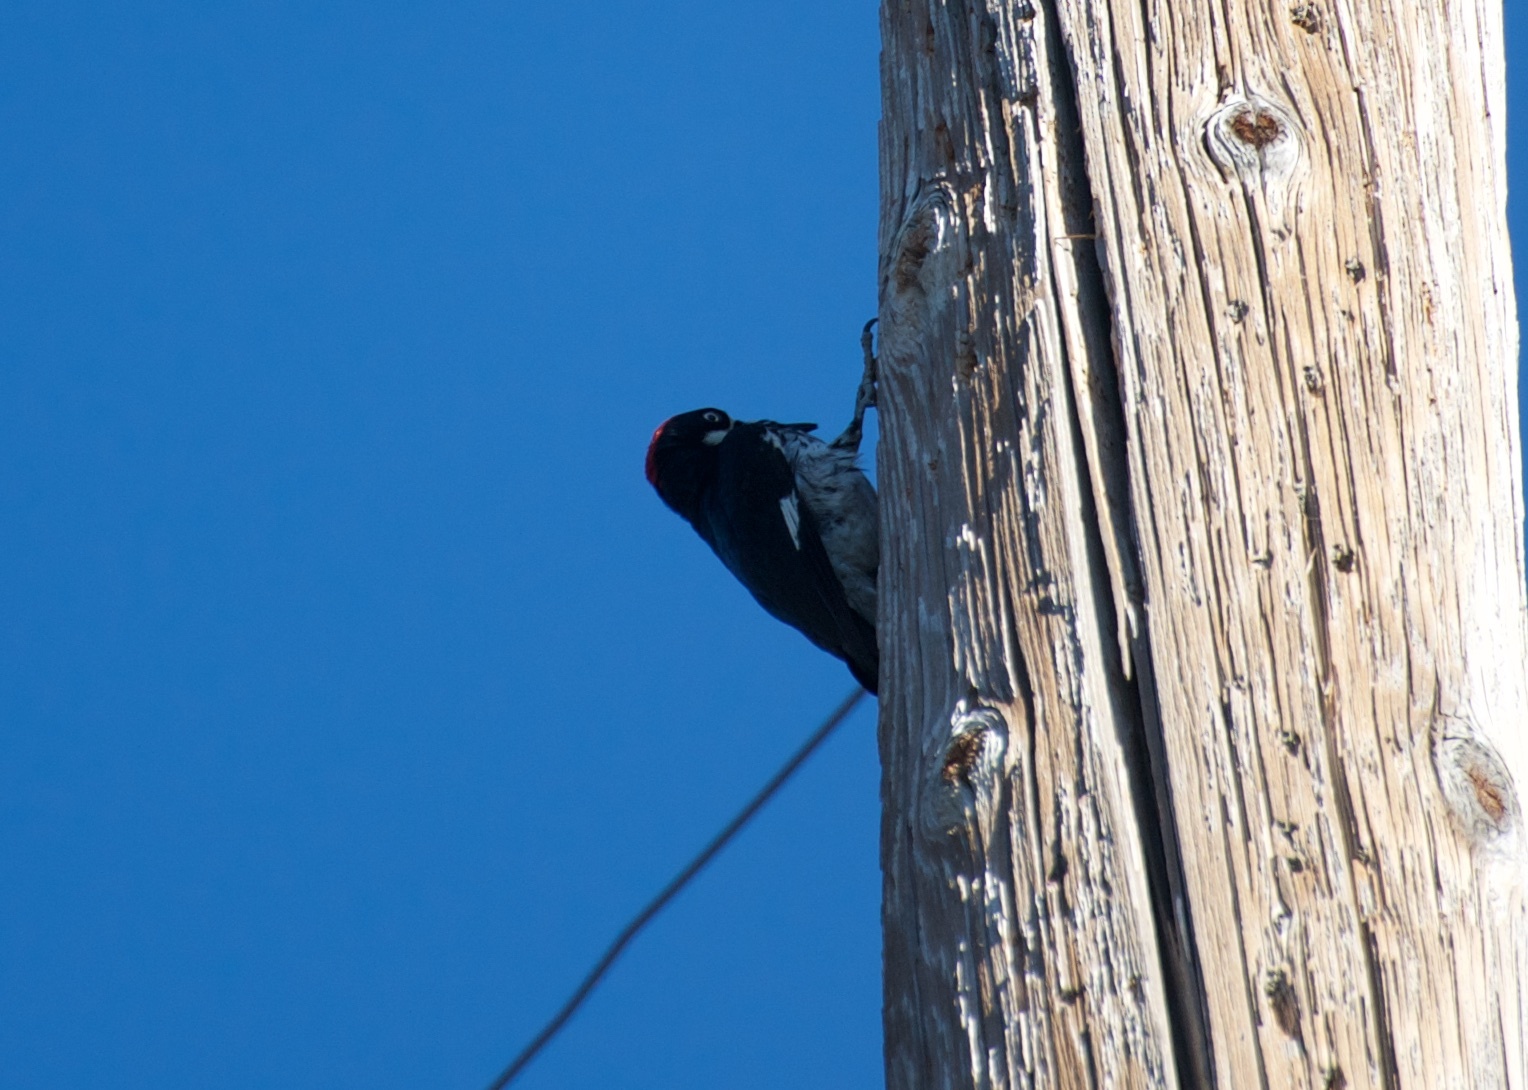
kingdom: Animalia
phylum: Chordata
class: Aves
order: Piciformes
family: Picidae
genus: Melanerpes
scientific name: Melanerpes formicivorus
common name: Acorn woodpecker
